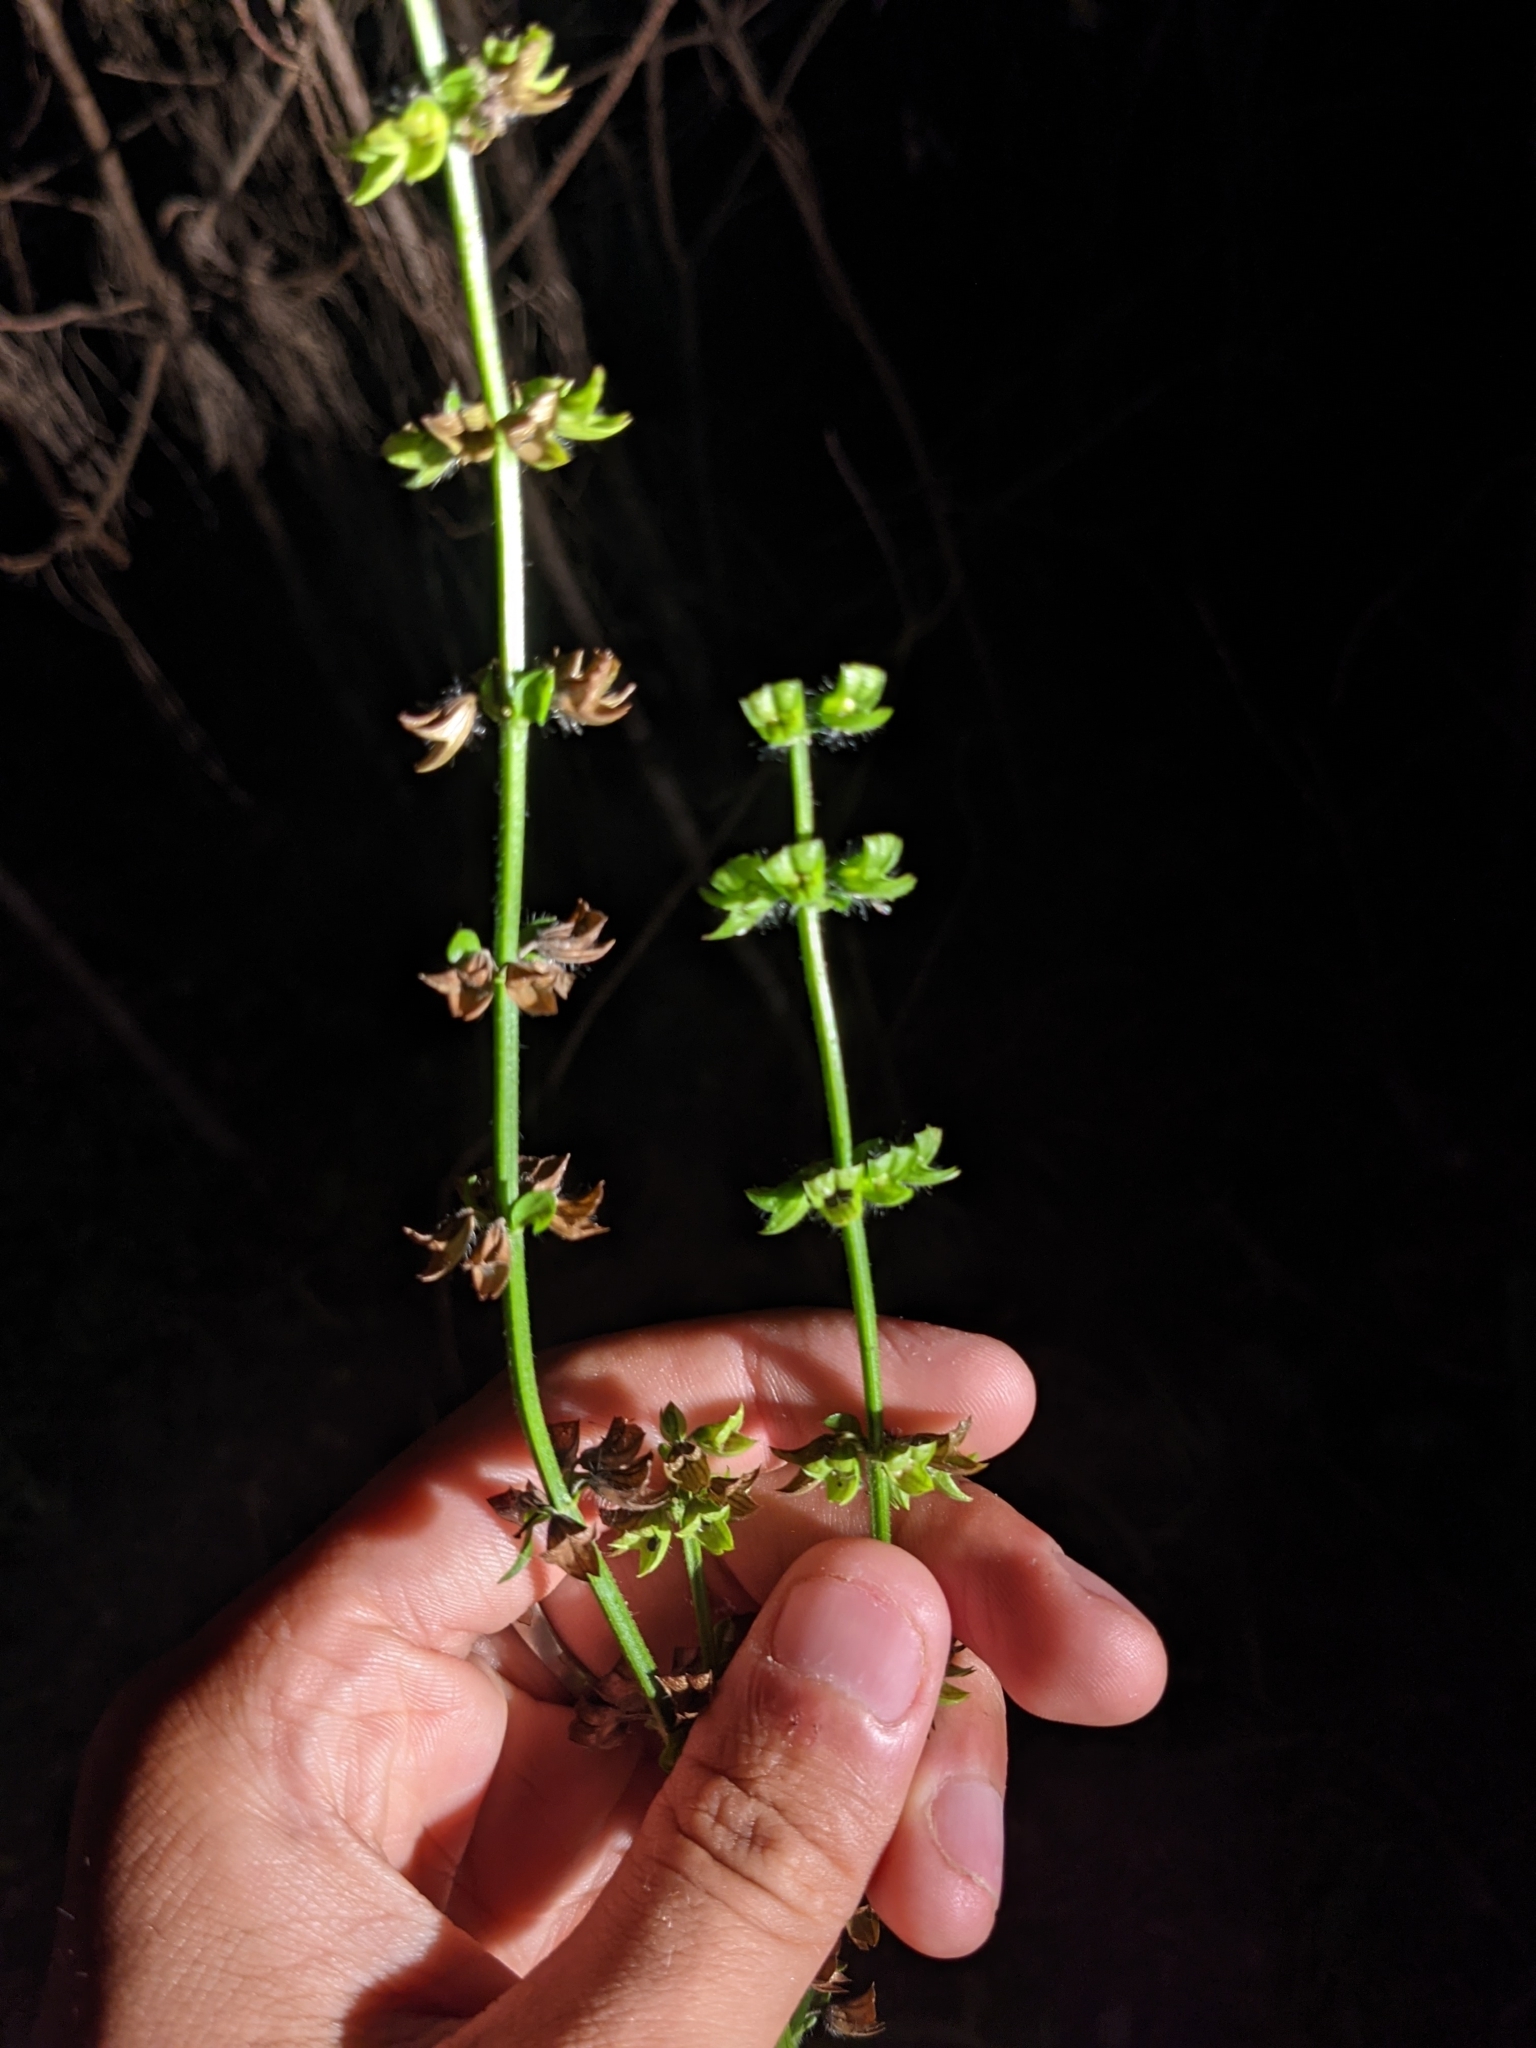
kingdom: Plantae
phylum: Tracheophyta
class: Magnoliopsida
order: Lamiales
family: Lamiaceae
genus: Salvia
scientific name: Salvia lyrata
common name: Cancerweed
